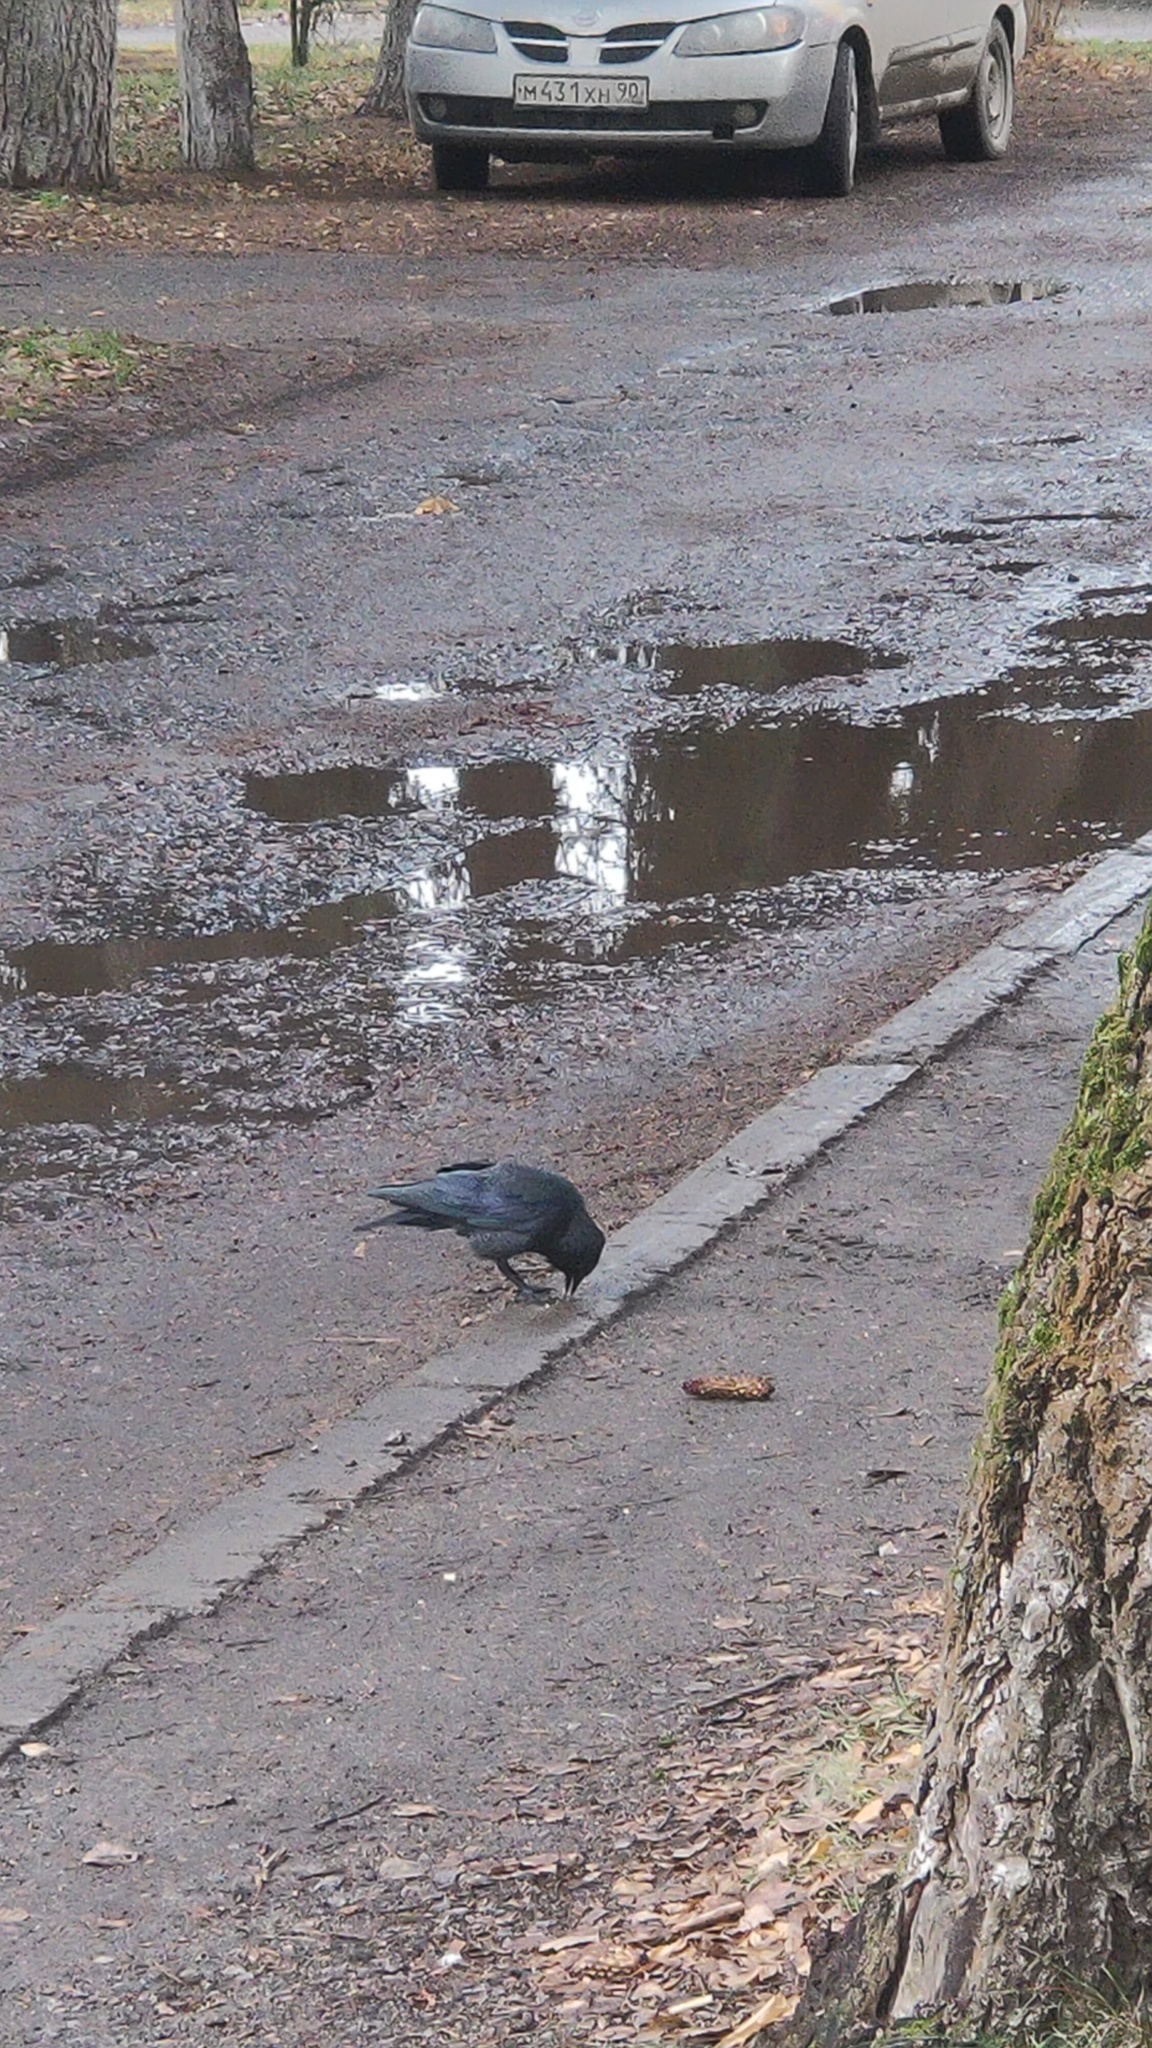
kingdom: Animalia
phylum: Chordata
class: Aves
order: Passeriformes
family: Corvidae
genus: Coloeus
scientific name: Coloeus monedula
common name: Western jackdaw
